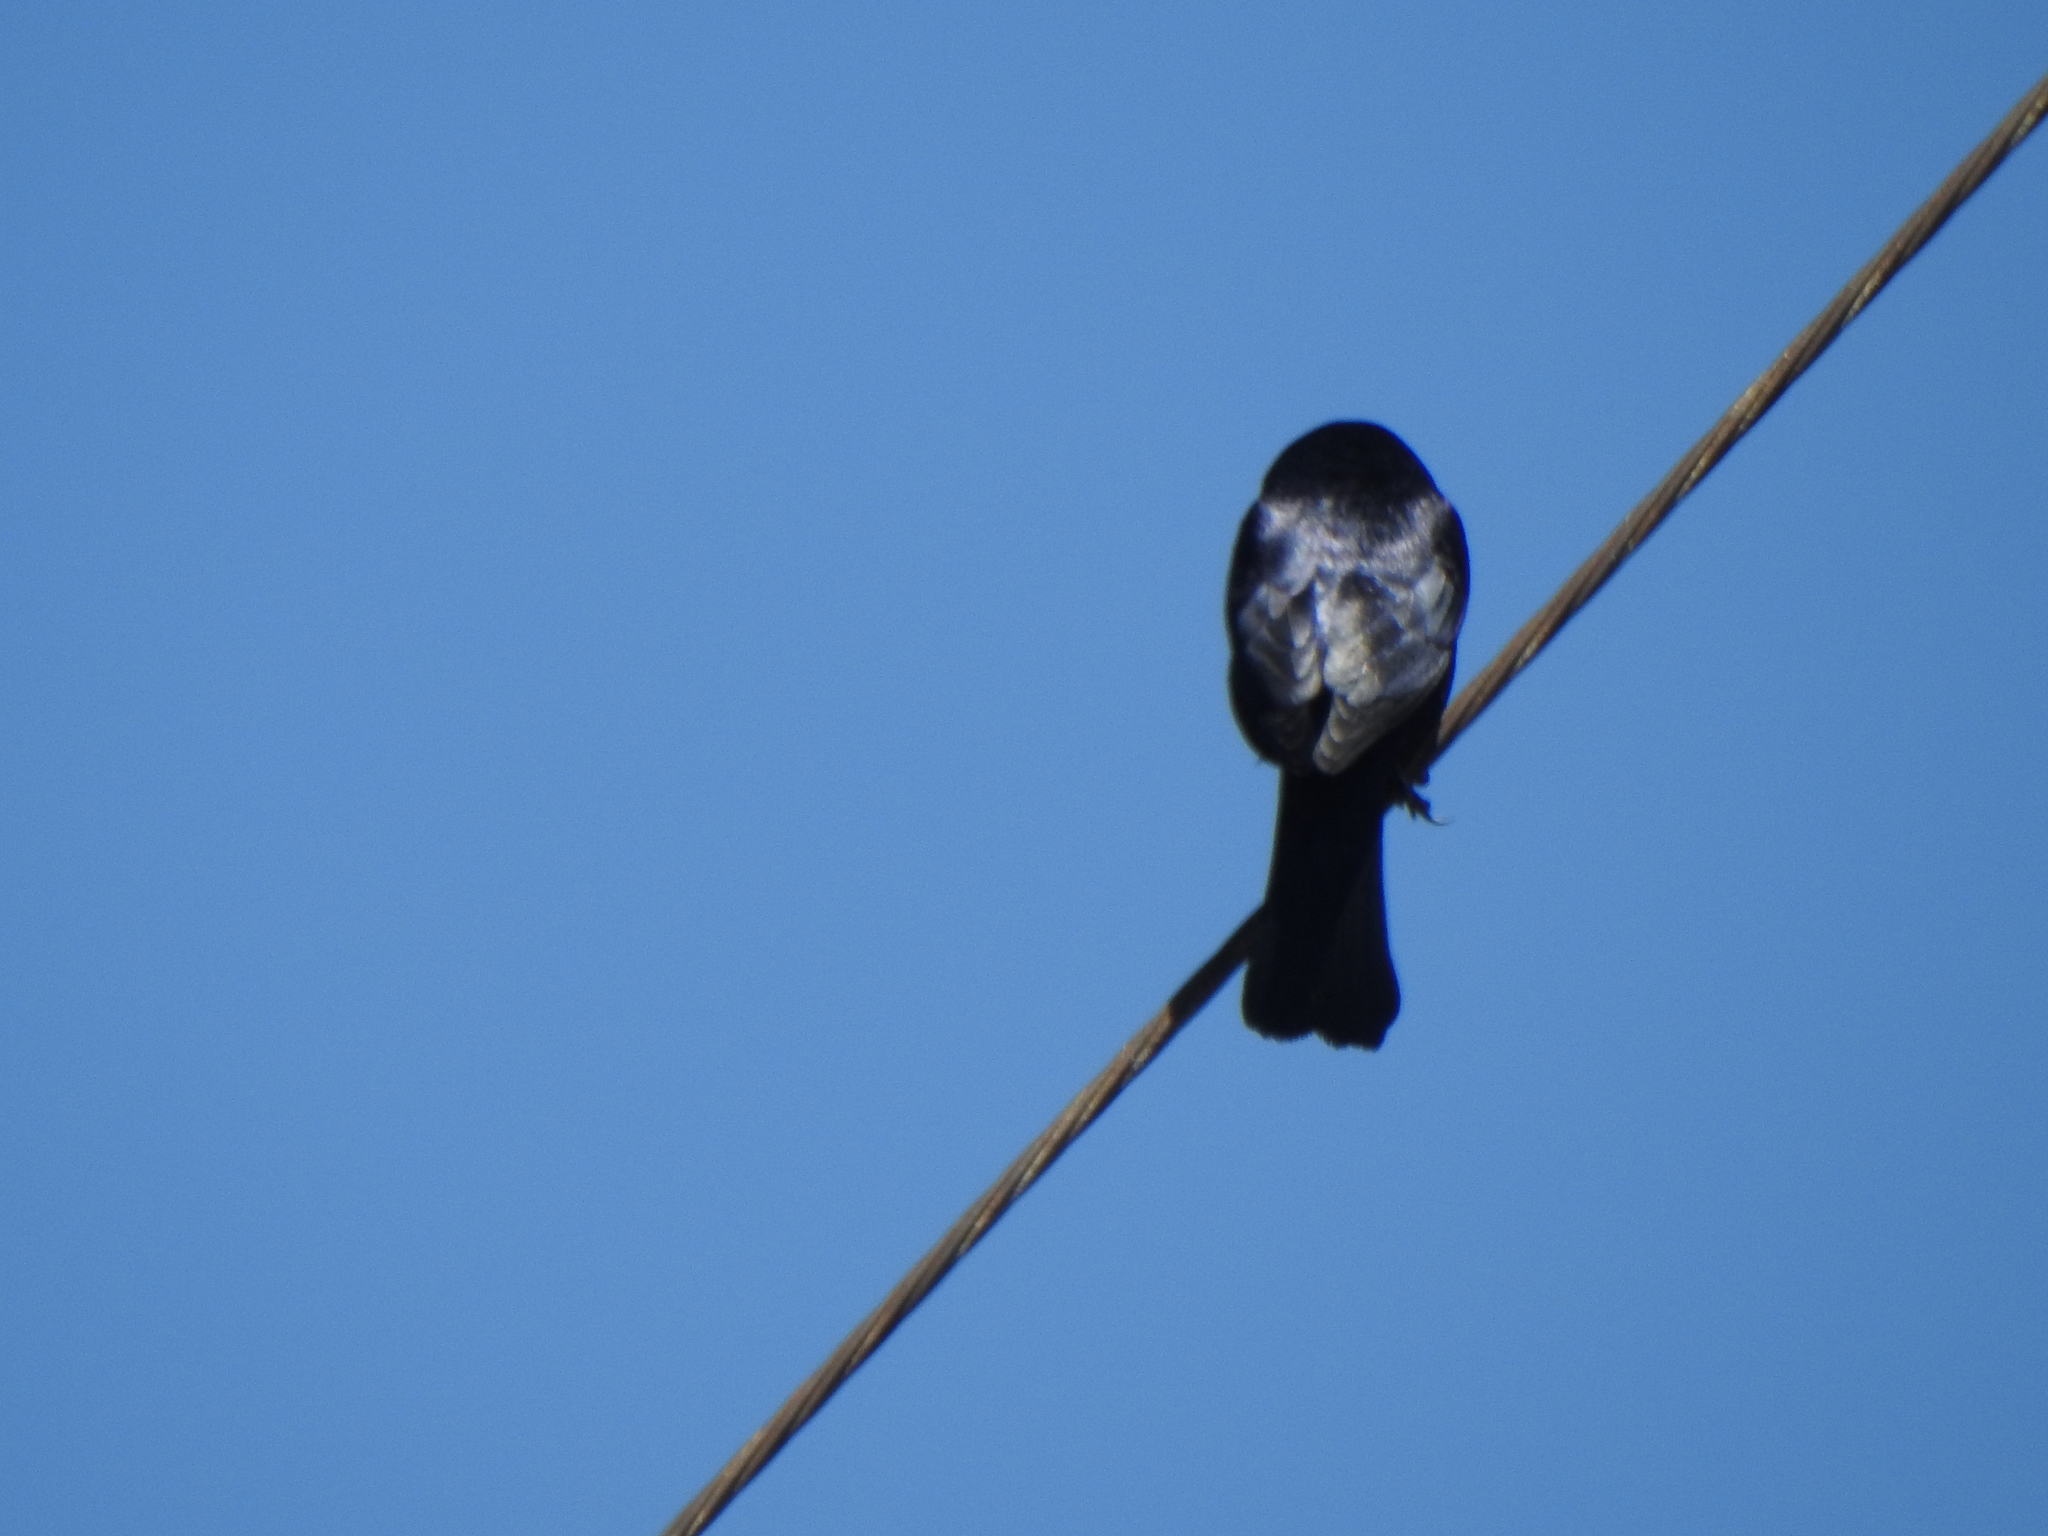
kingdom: Animalia
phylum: Chordata
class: Aves
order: Passeriformes
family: Icteridae
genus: Molothrus
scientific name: Molothrus bonariensis
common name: Shiny cowbird
